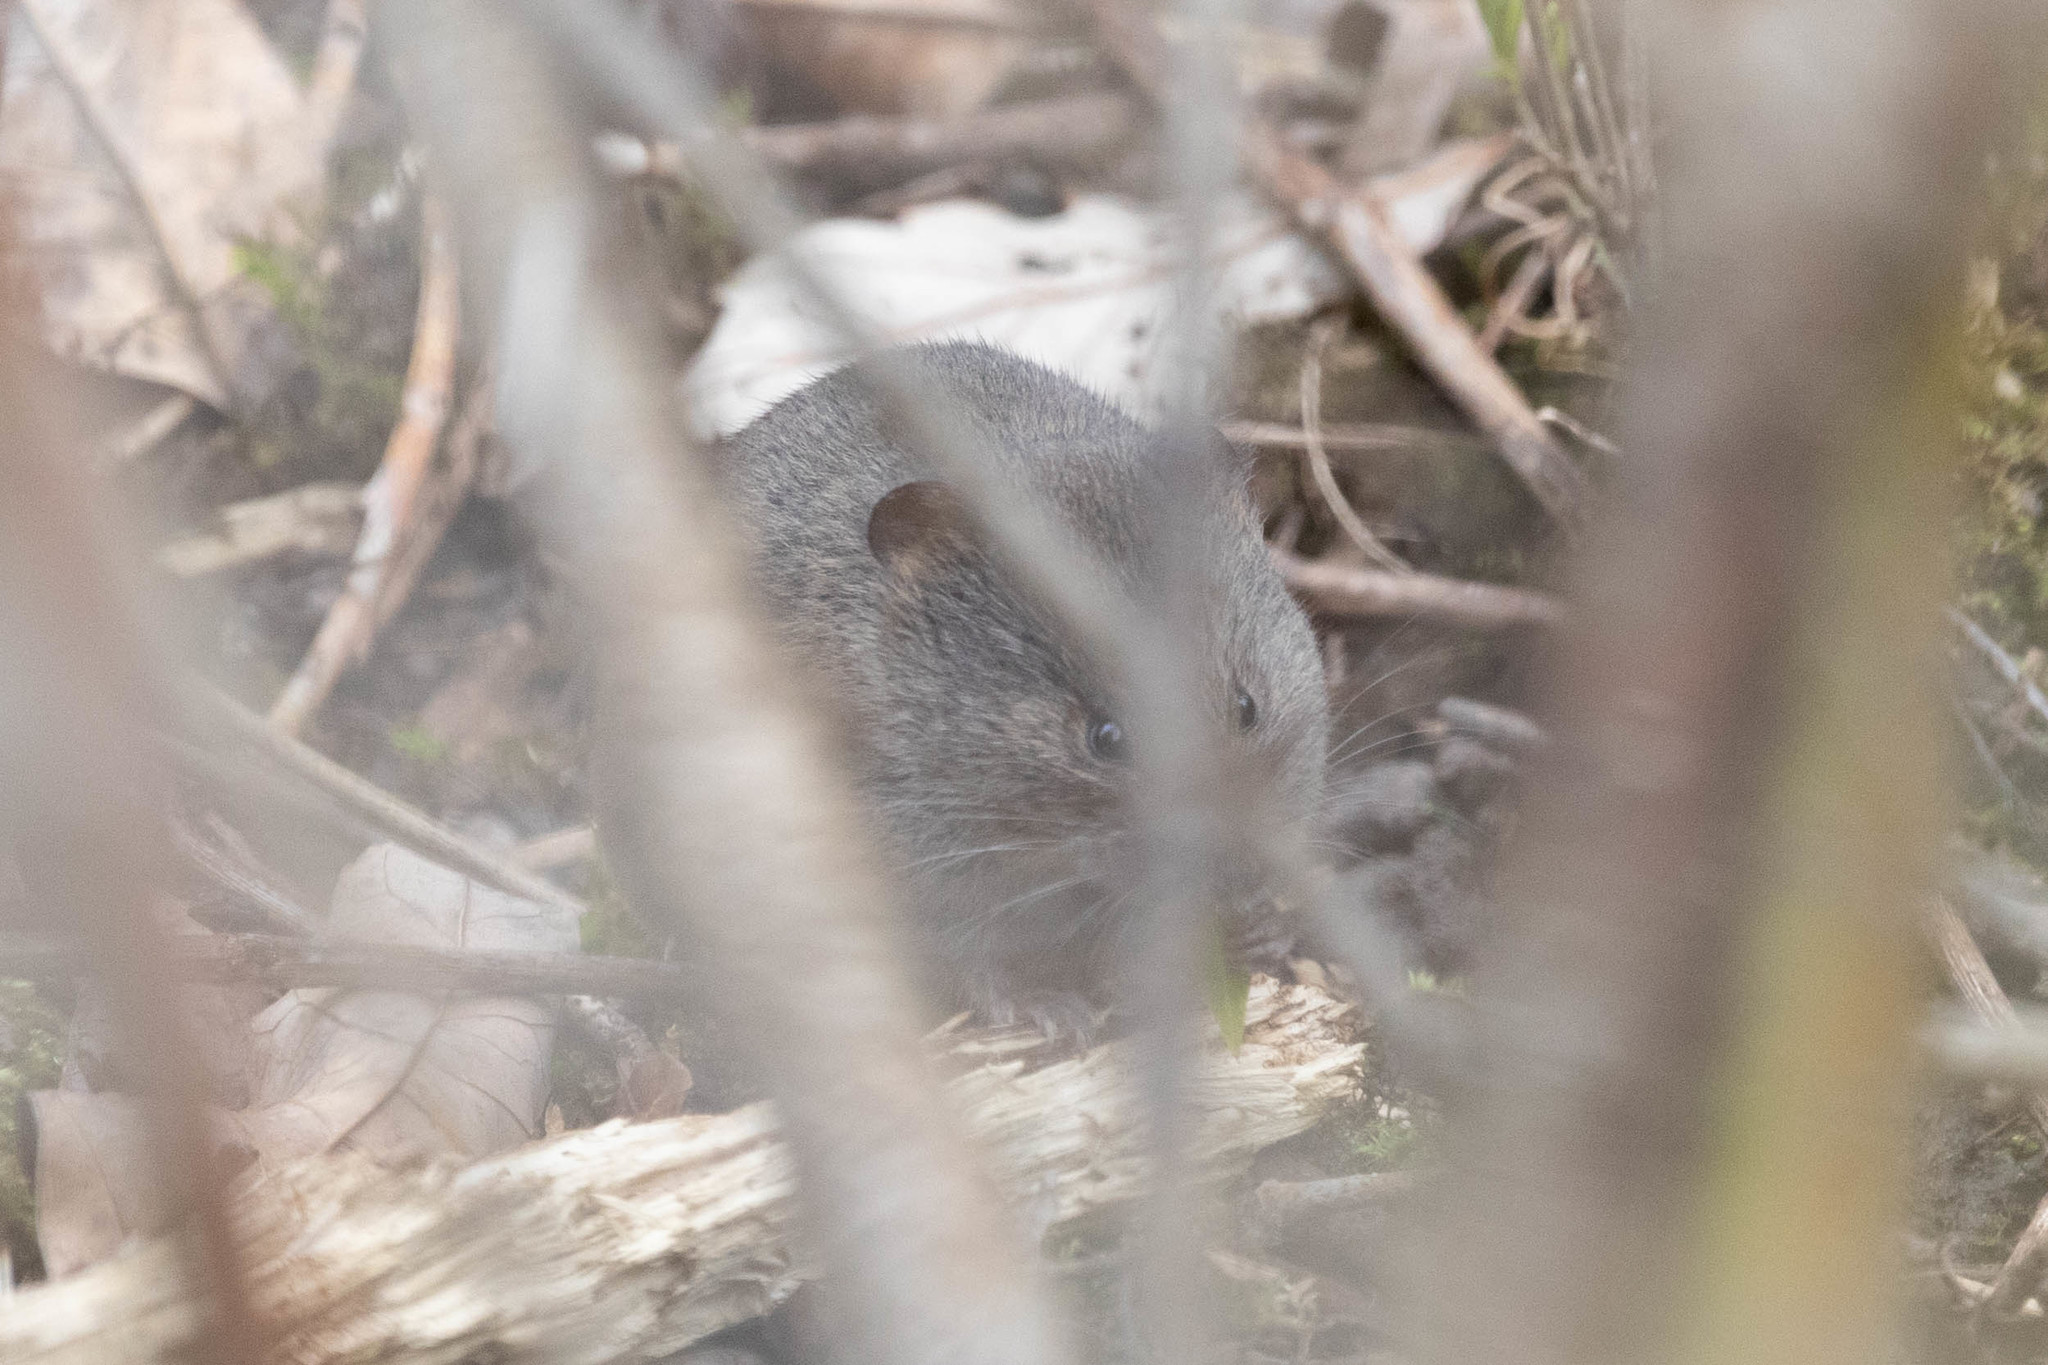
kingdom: Animalia
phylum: Chordata
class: Mammalia
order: Rodentia
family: Cricetidae
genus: Microtus
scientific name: Microtus pennsylvanicus
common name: Meadow vole
